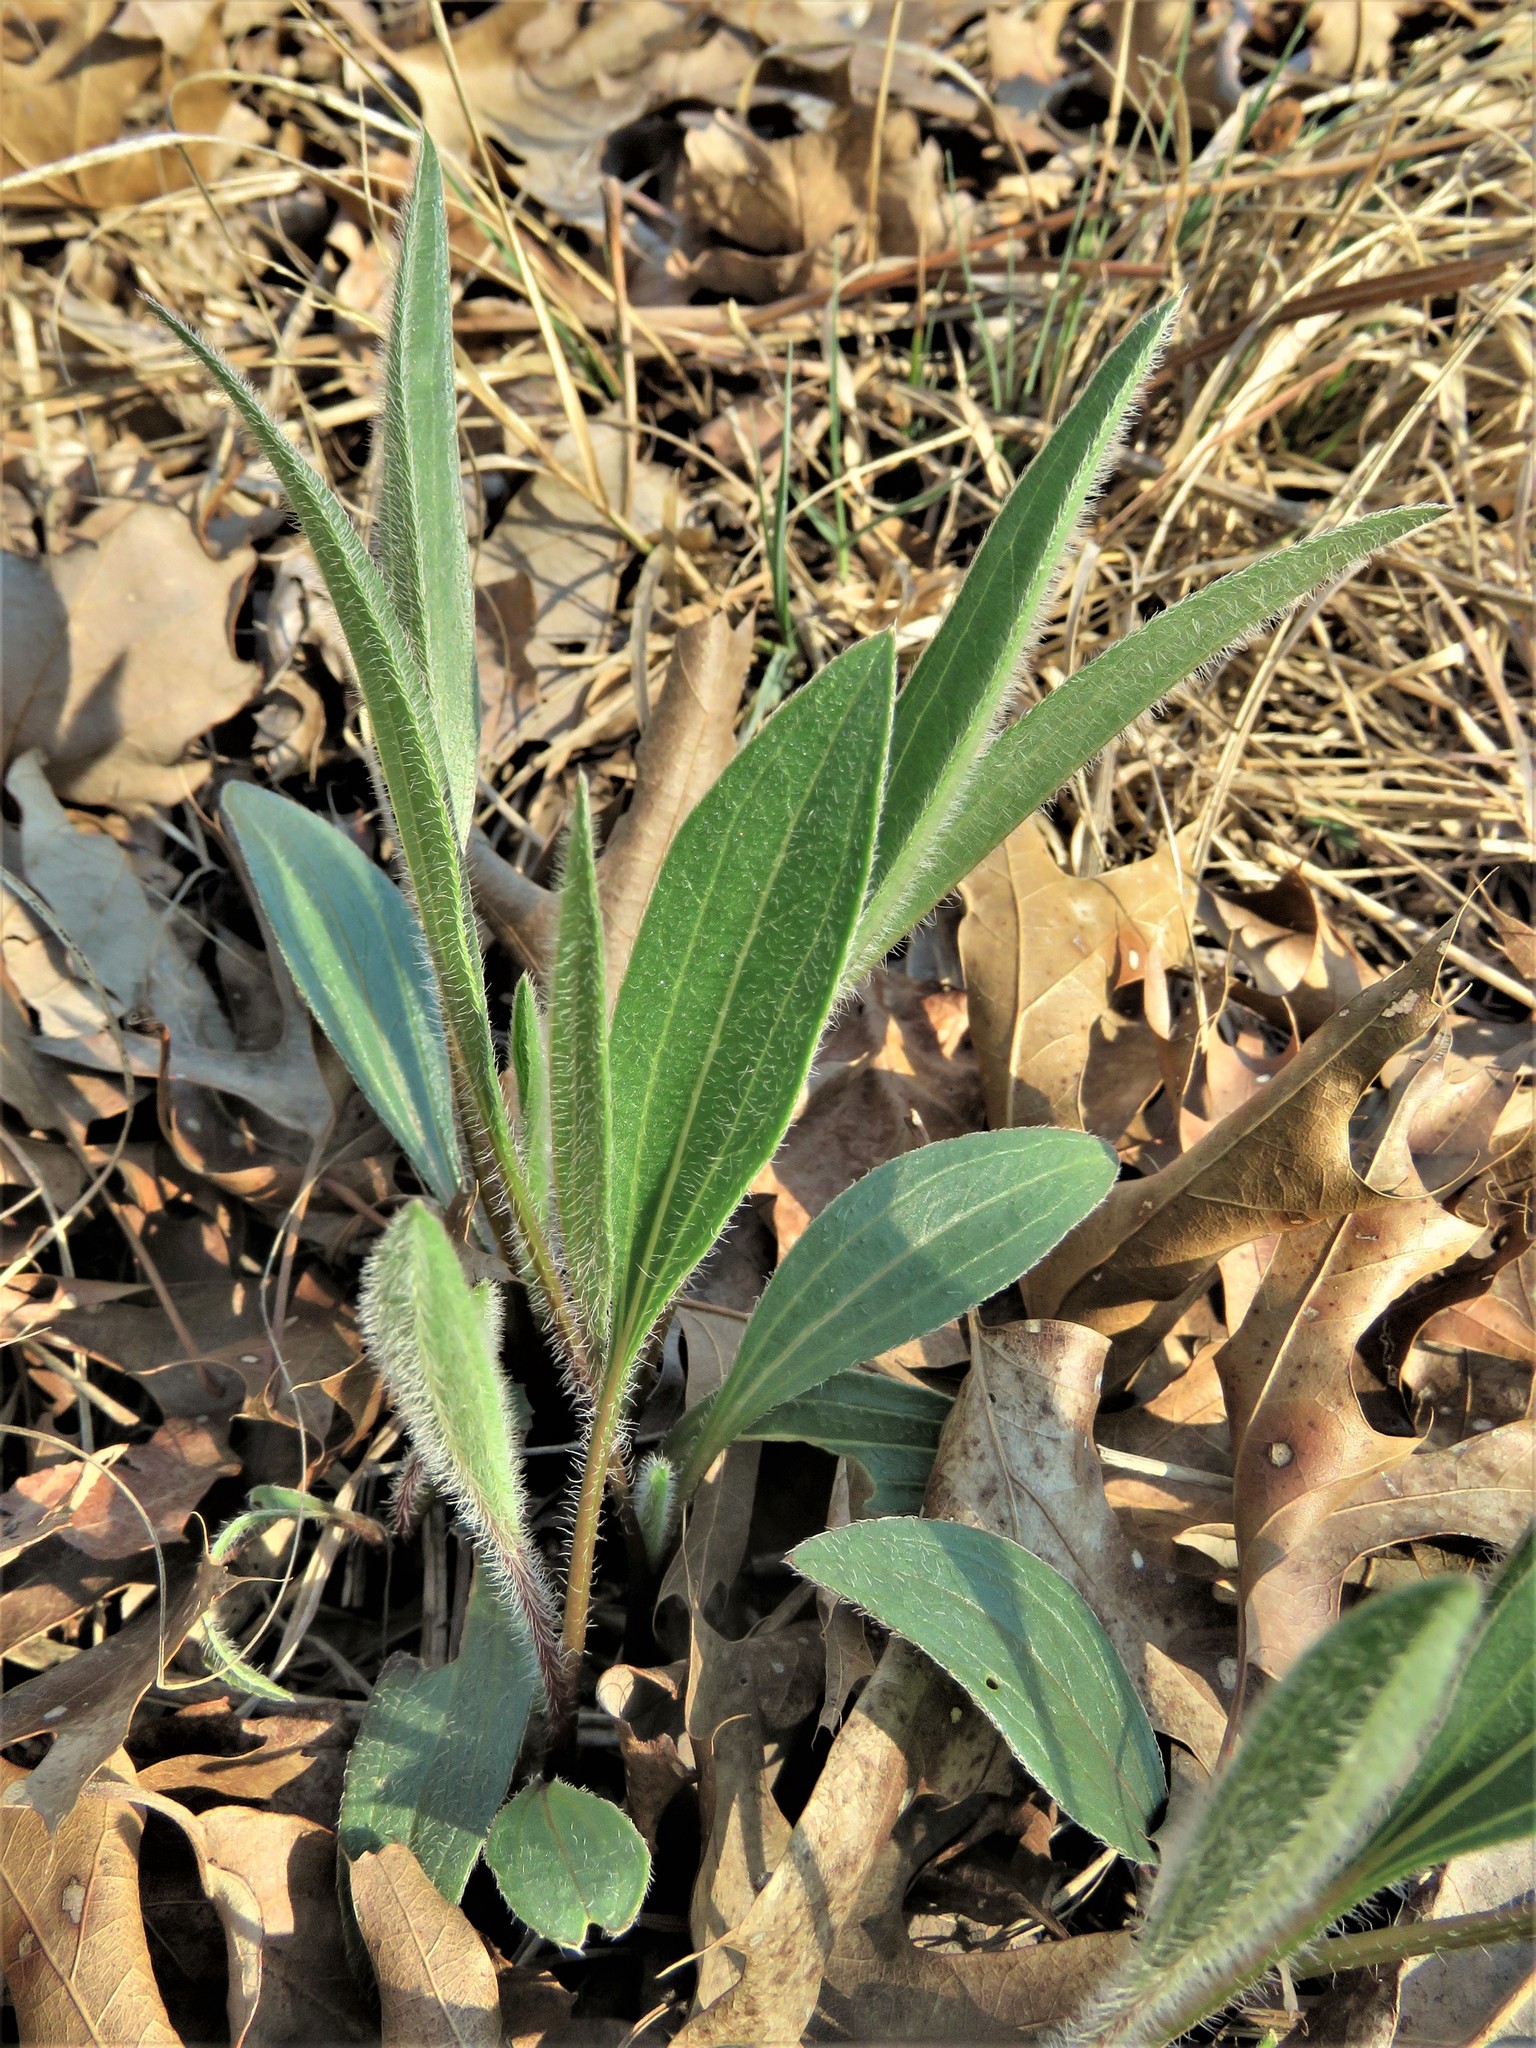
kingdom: Plantae
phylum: Tracheophyta
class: Magnoliopsida
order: Asterales
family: Asteraceae
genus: Echinacea
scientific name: Echinacea angustifolia
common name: Black-sampson echinacea
